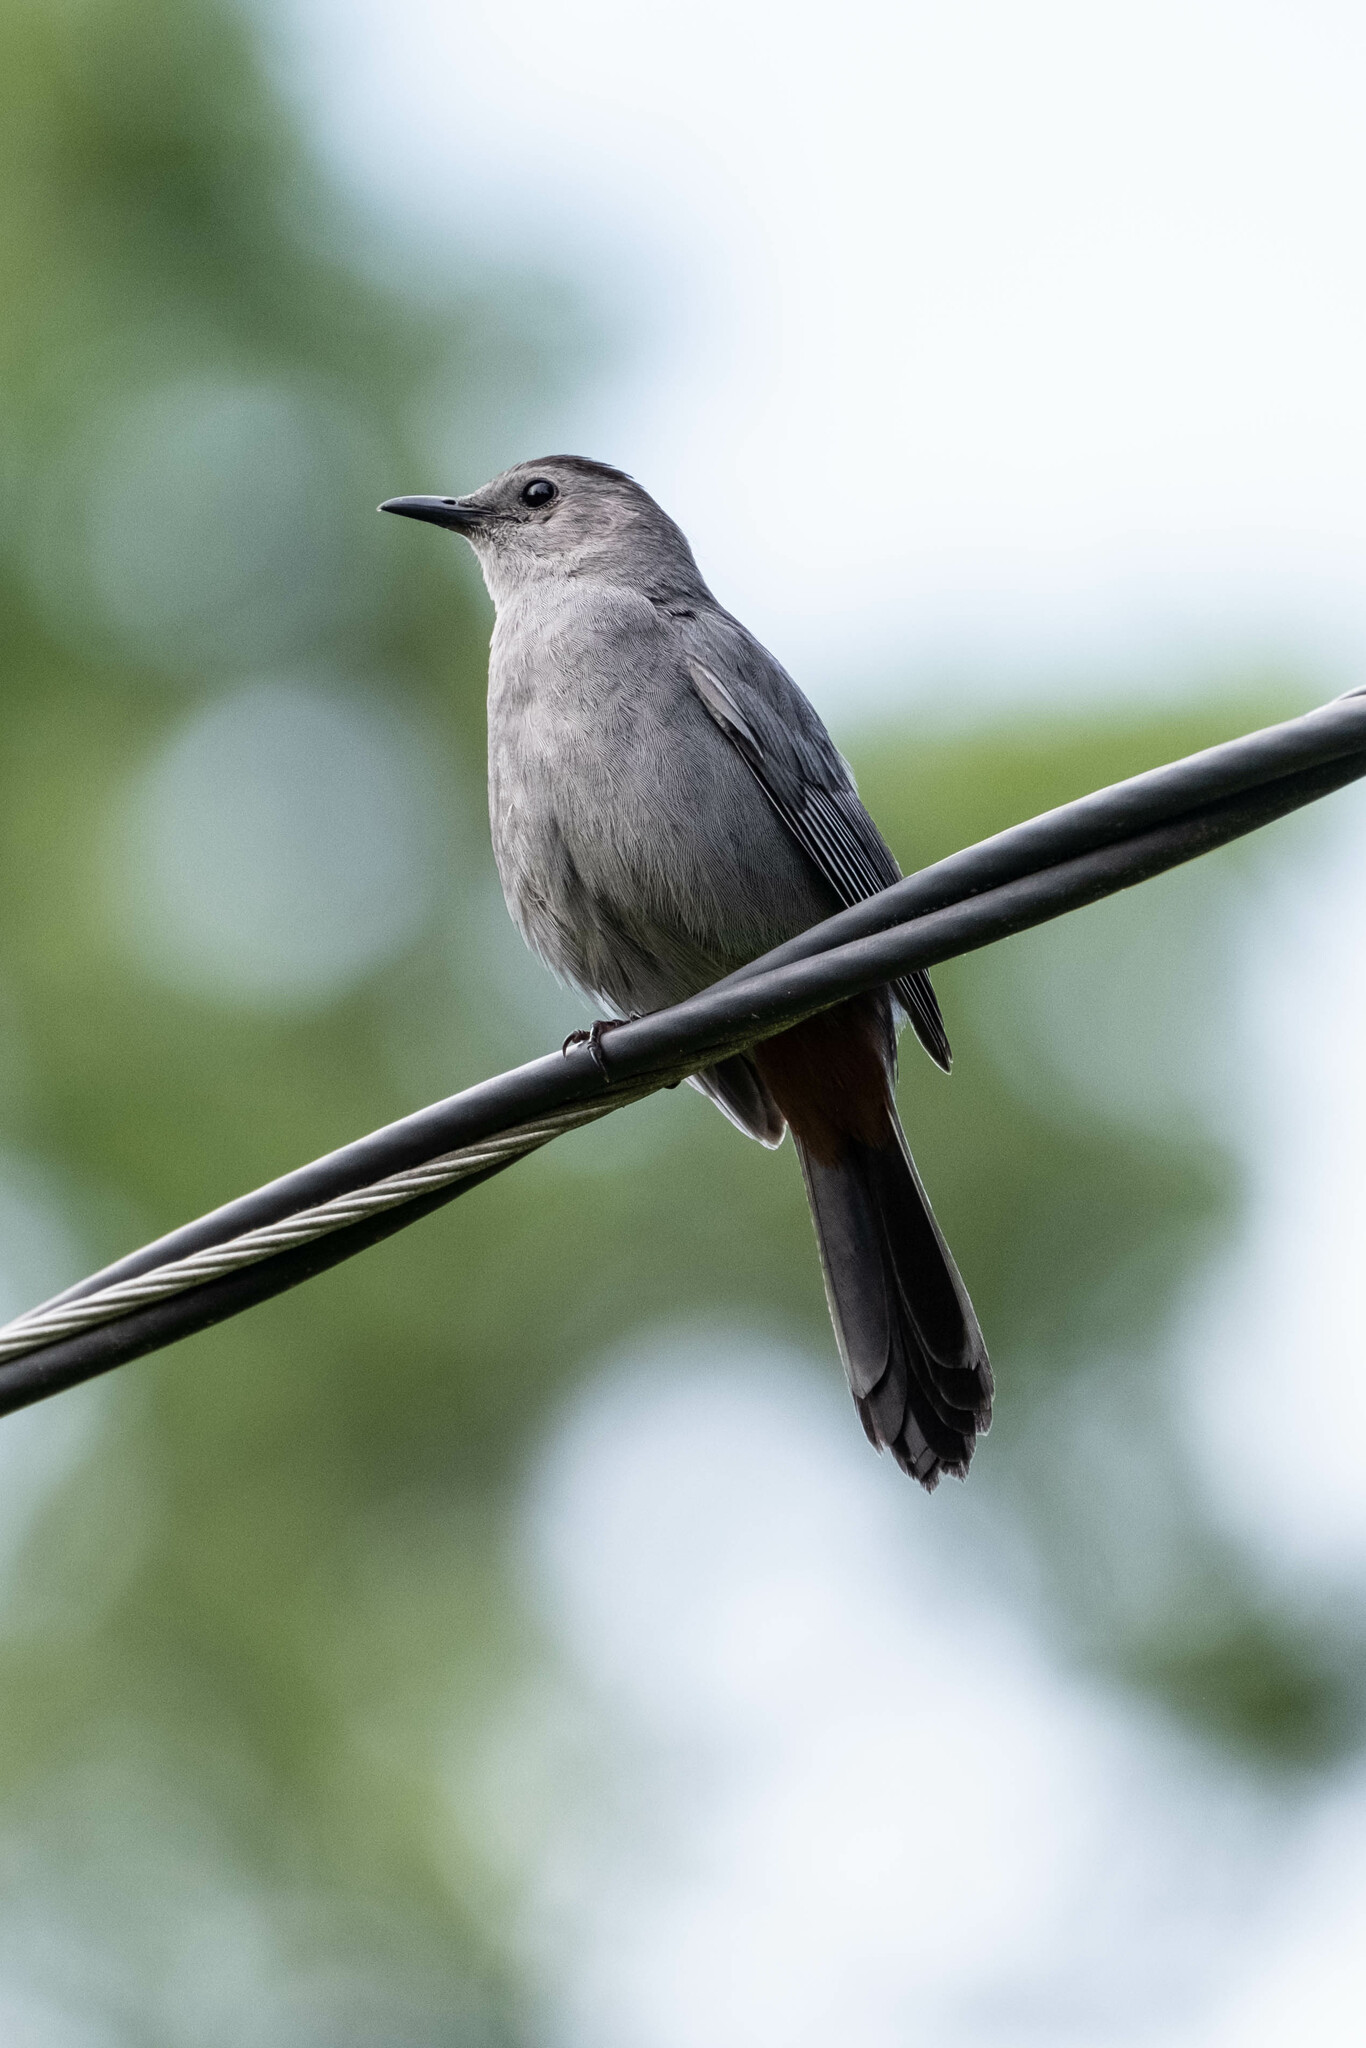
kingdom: Animalia
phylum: Chordata
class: Aves
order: Passeriformes
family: Mimidae
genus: Dumetella
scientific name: Dumetella carolinensis
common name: Gray catbird
